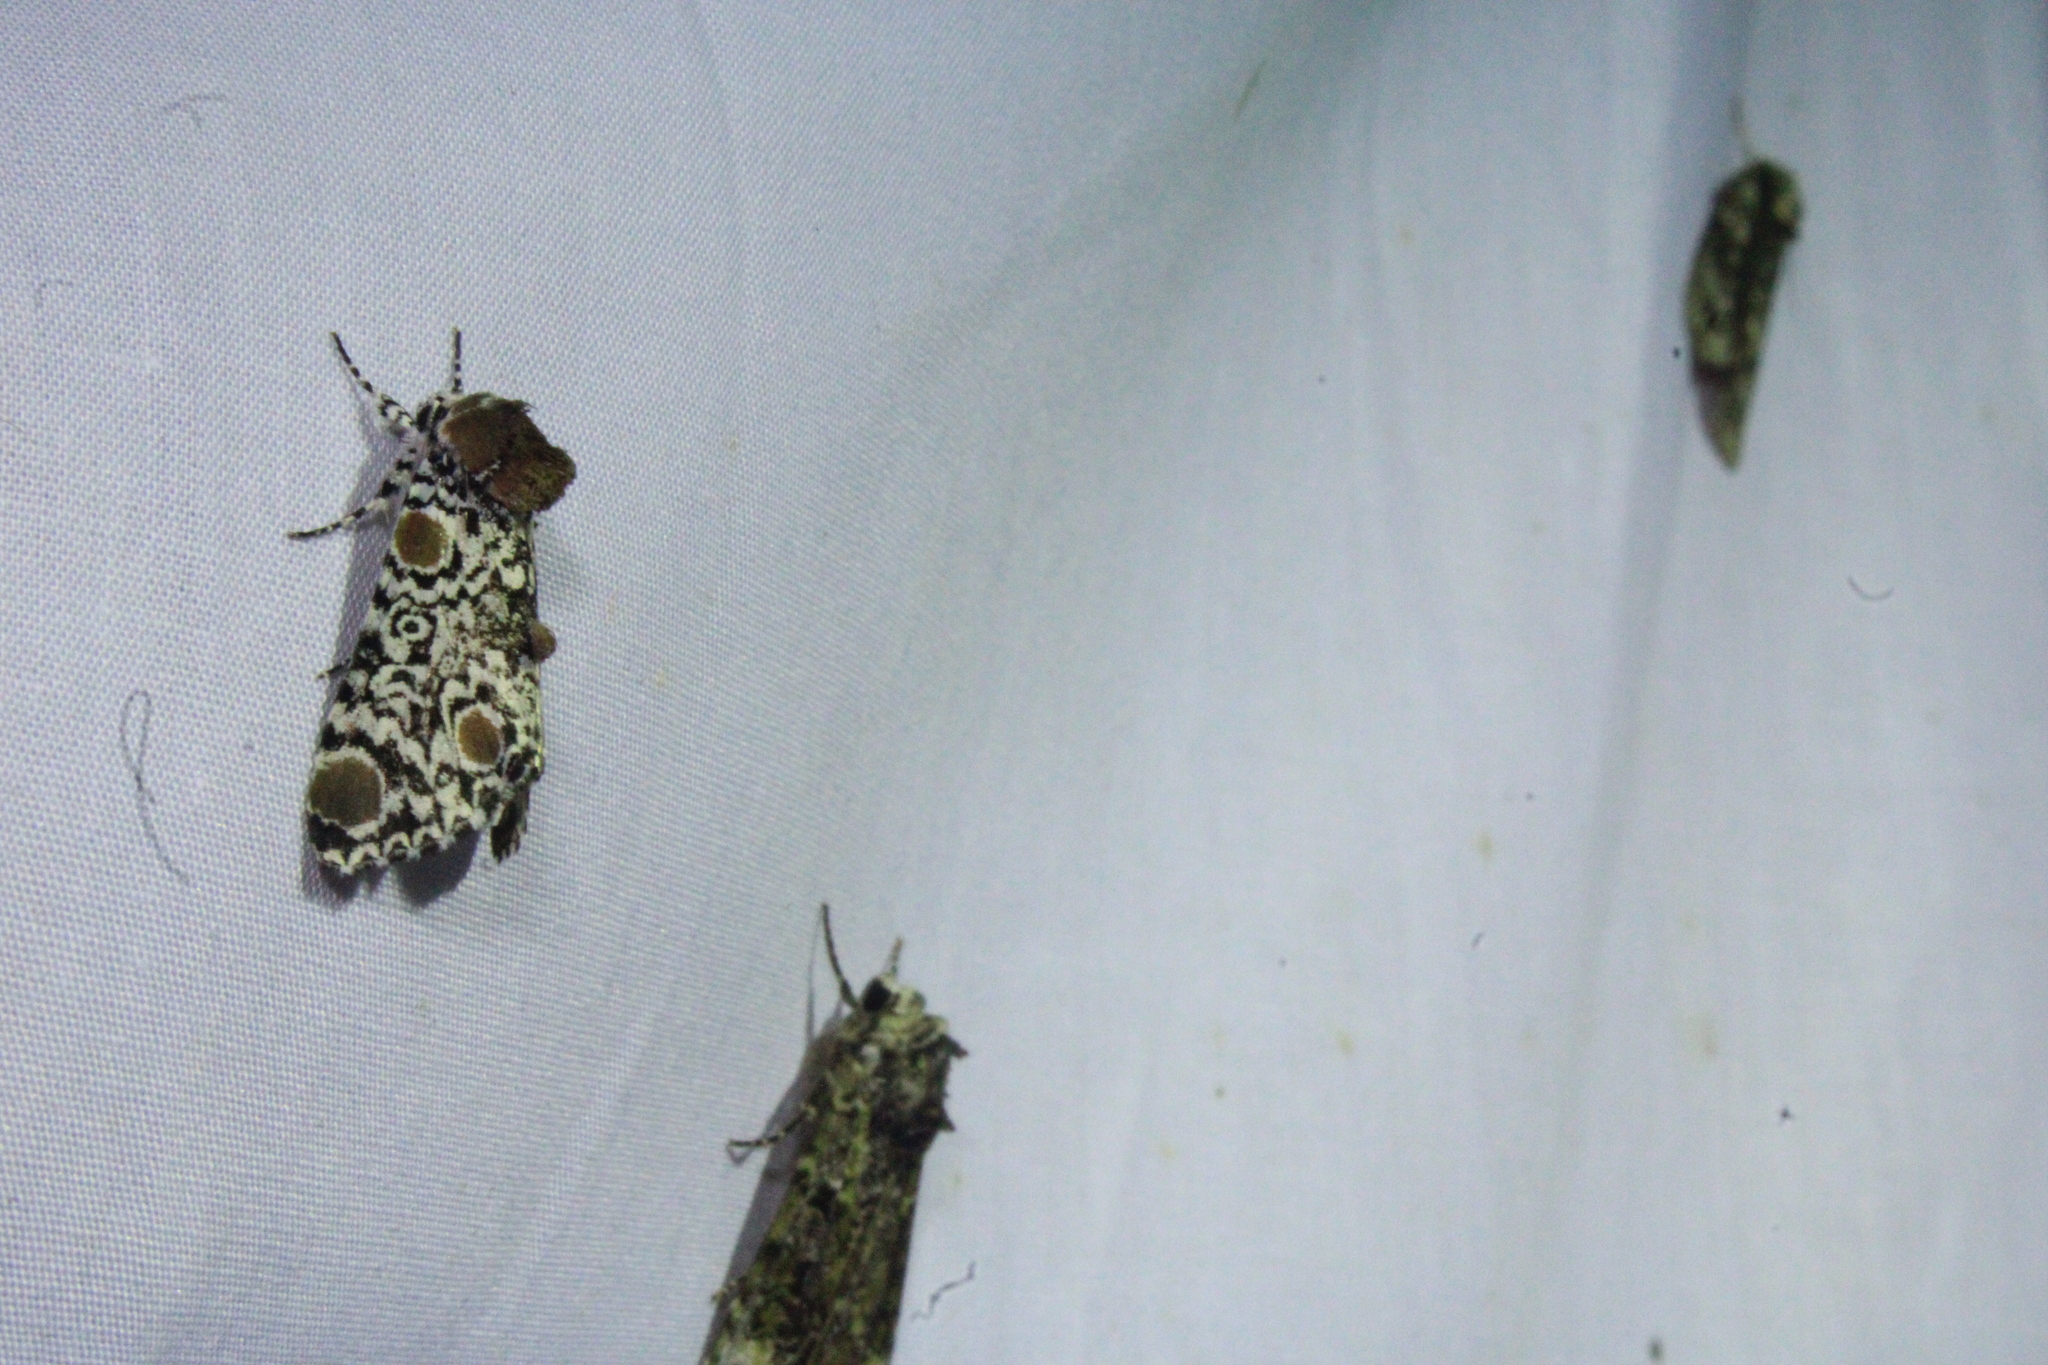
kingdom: Animalia
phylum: Arthropoda
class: Insecta
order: Lepidoptera
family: Noctuidae
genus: Harrisimemna
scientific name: Harrisimemna trisignata
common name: Harris threespot
